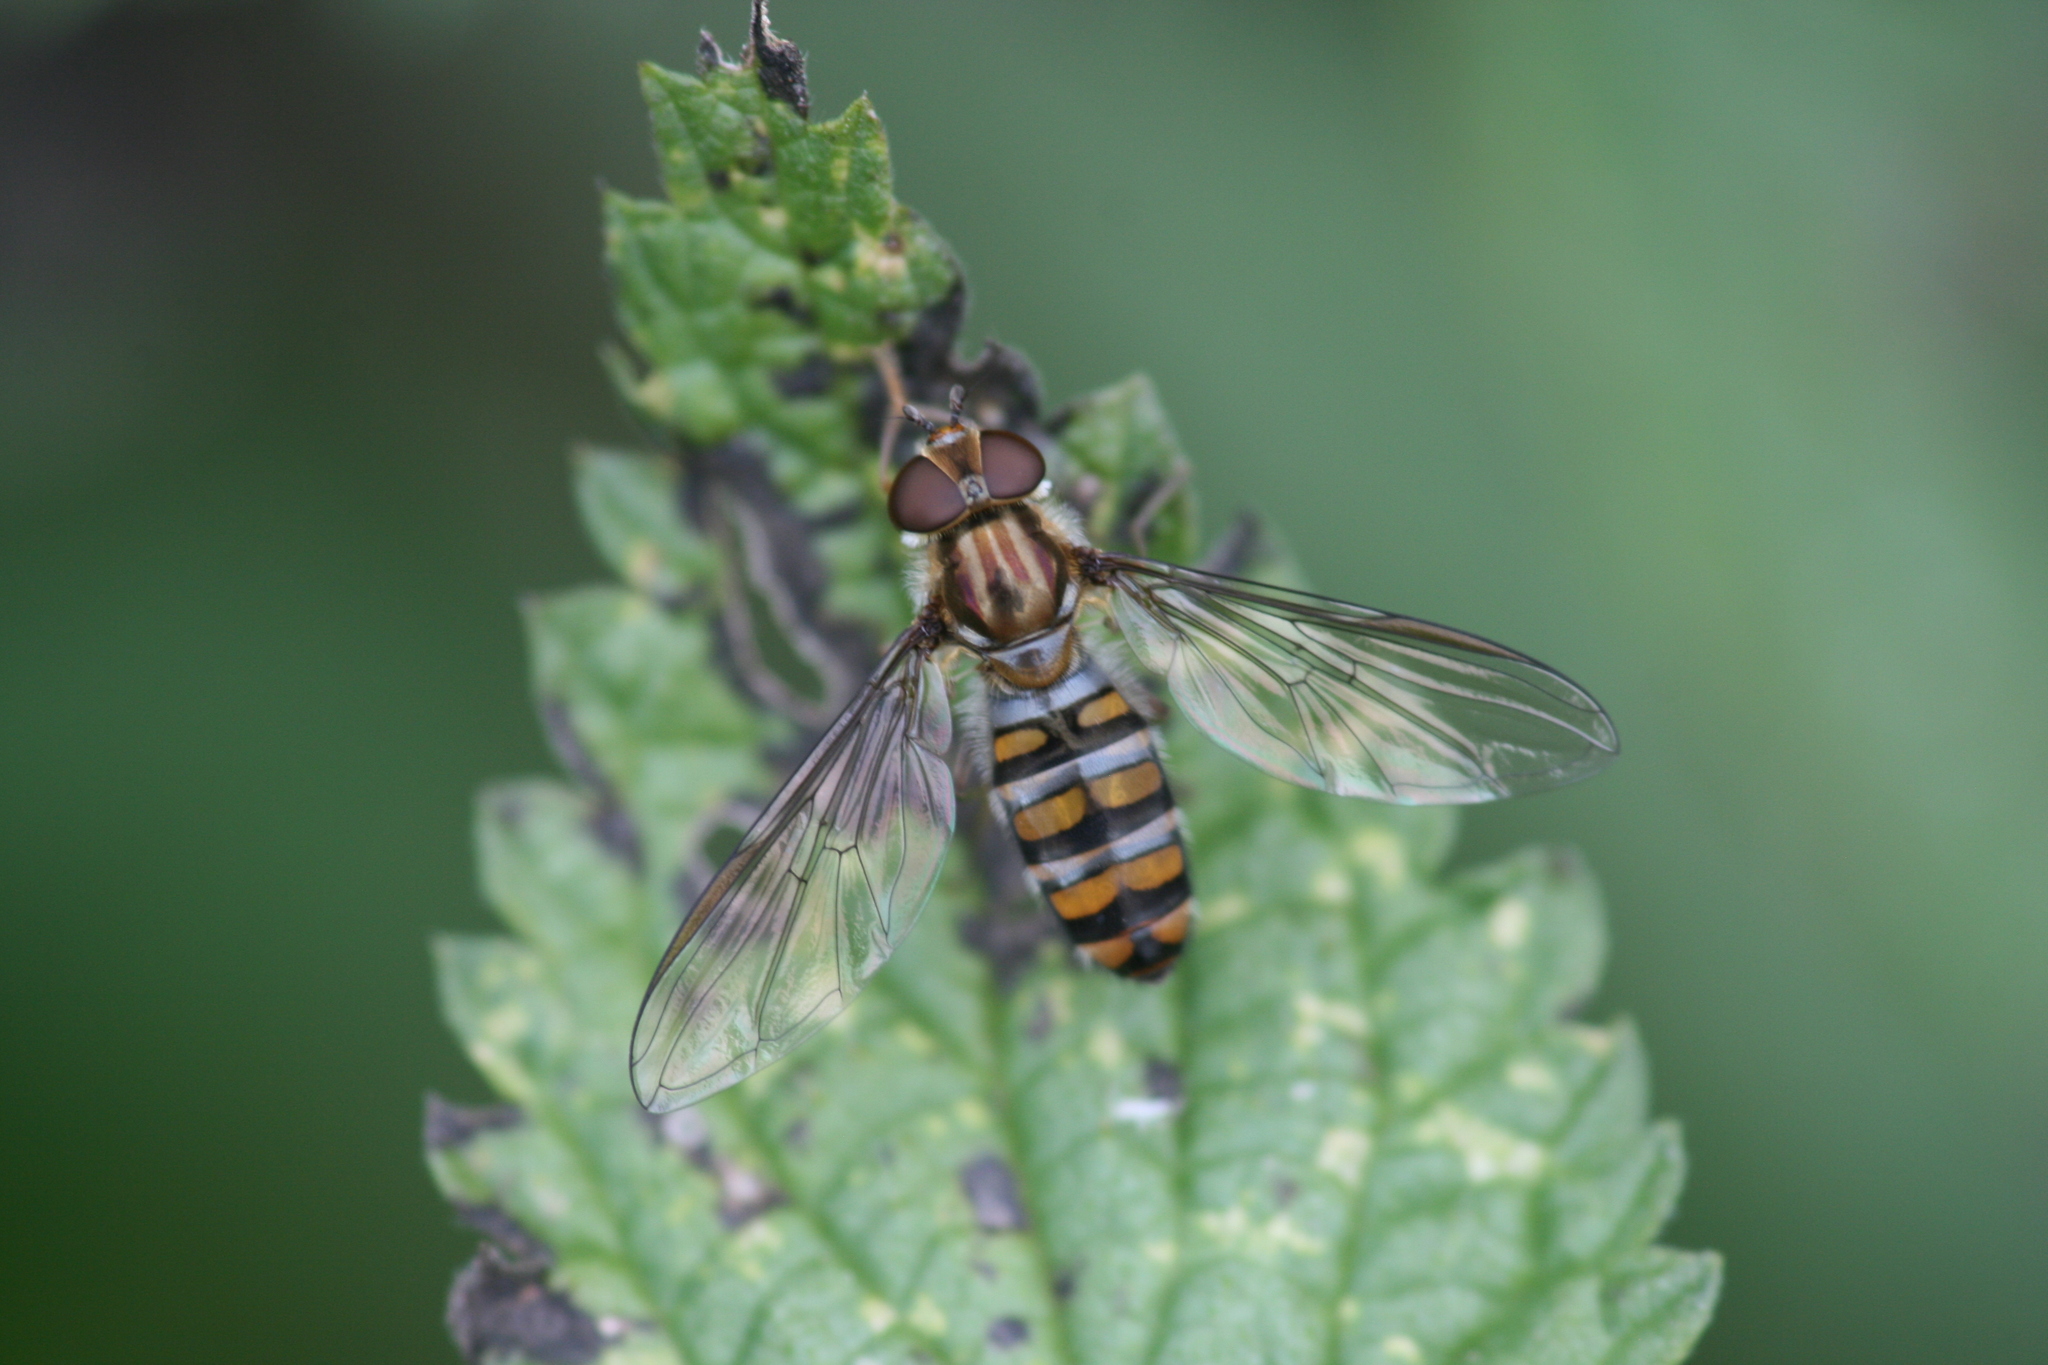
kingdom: Animalia
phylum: Arthropoda
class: Insecta
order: Diptera
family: Syrphidae
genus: Episyrphus
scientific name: Episyrphus balteatus
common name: Marmalade hoverfly
